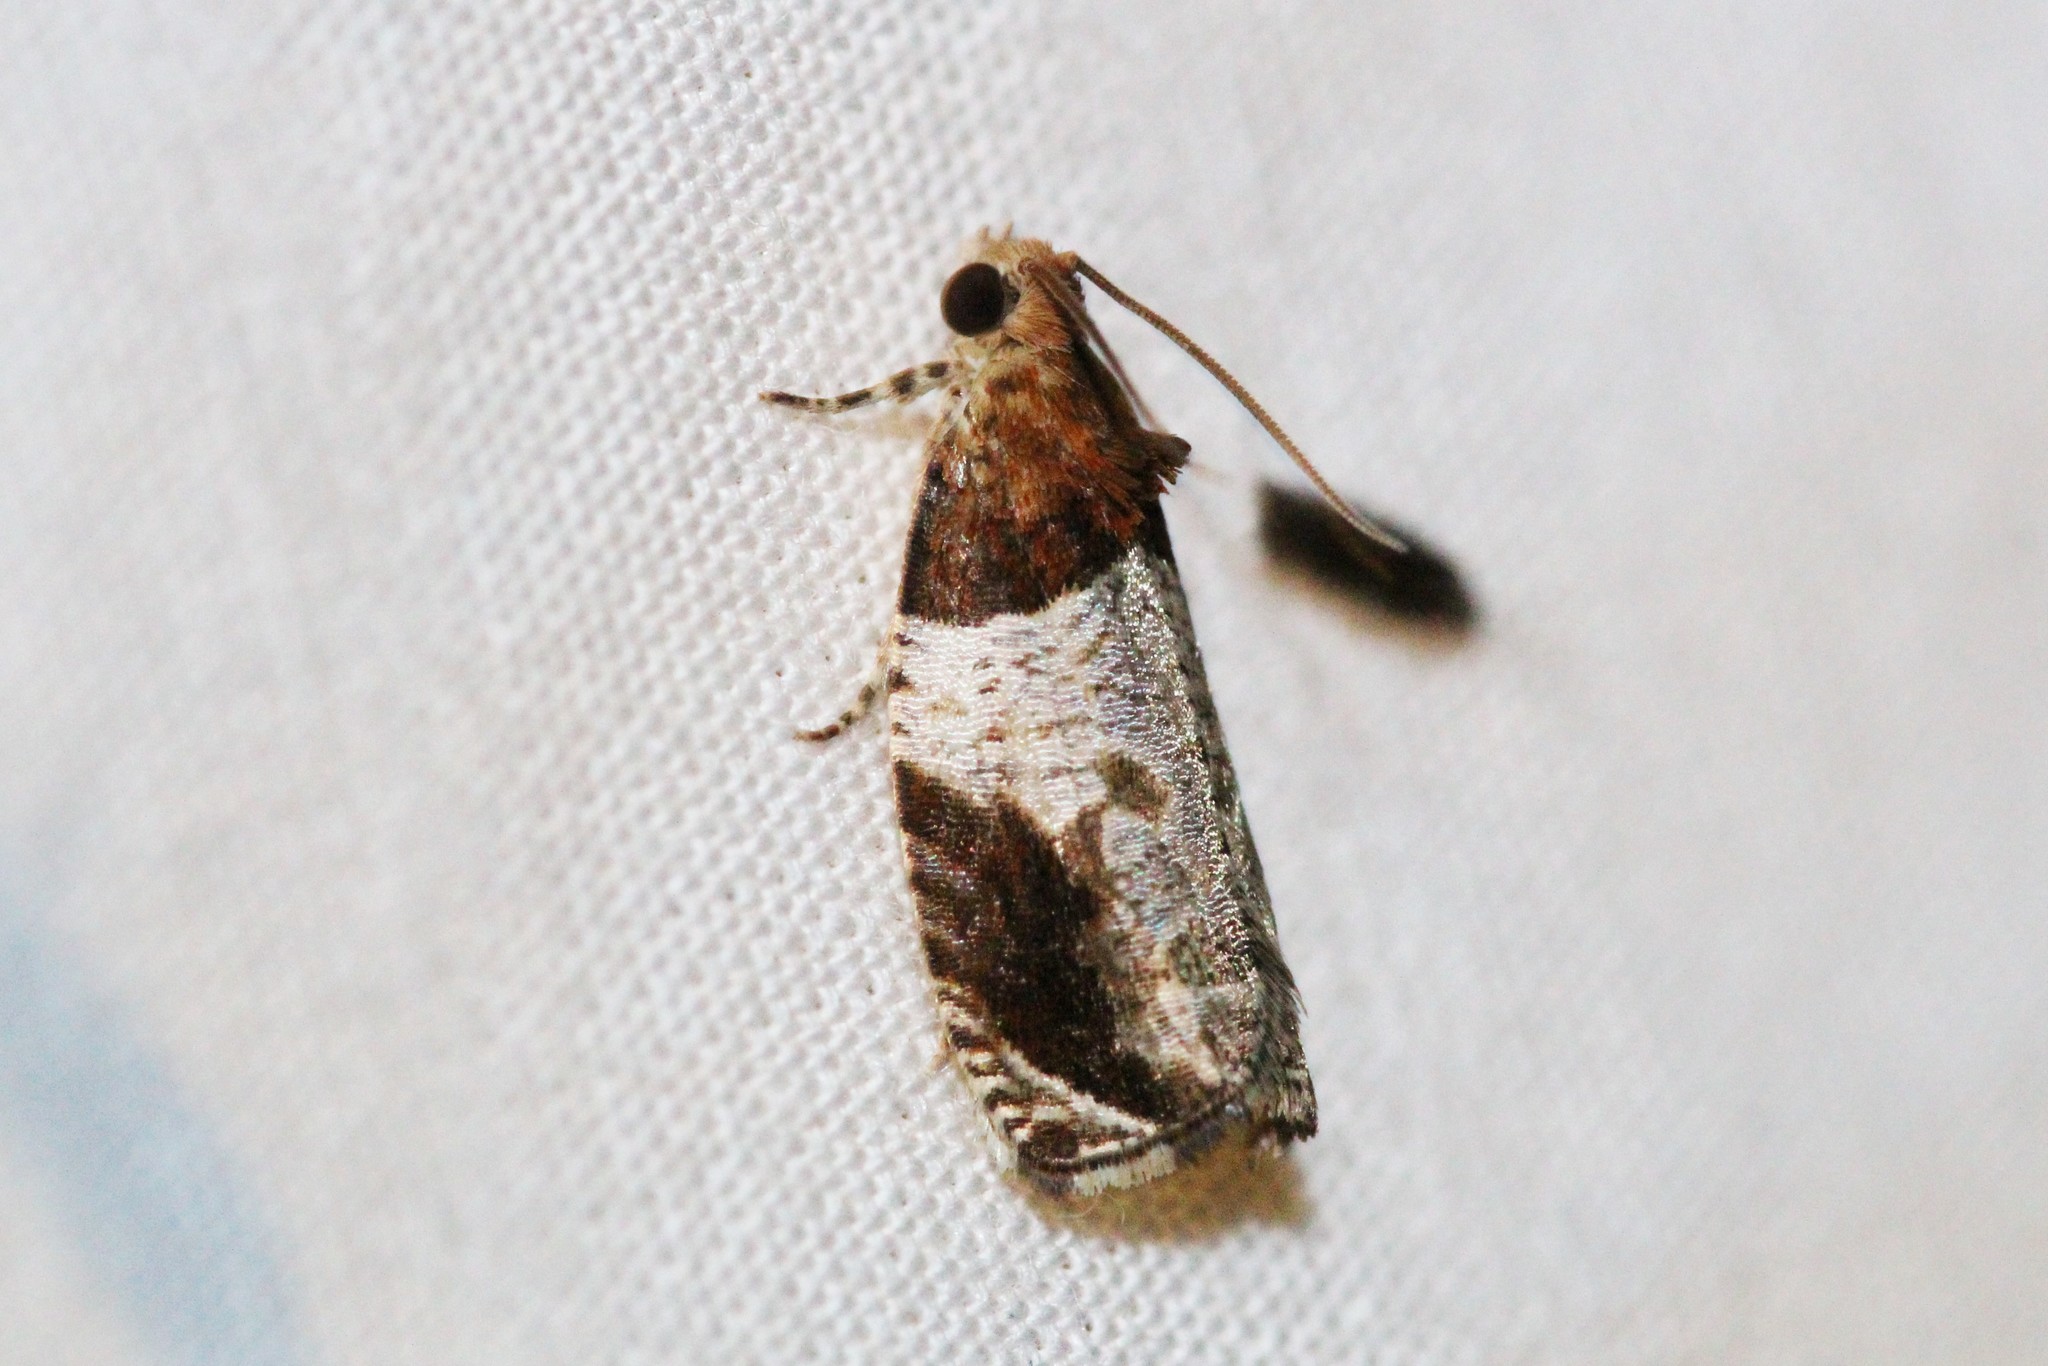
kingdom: Animalia
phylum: Arthropoda
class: Insecta
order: Lepidoptera
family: Tortricidae
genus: Olethreutes
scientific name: Olethreutes ferriferana
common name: Hydrangea leaftier moth
